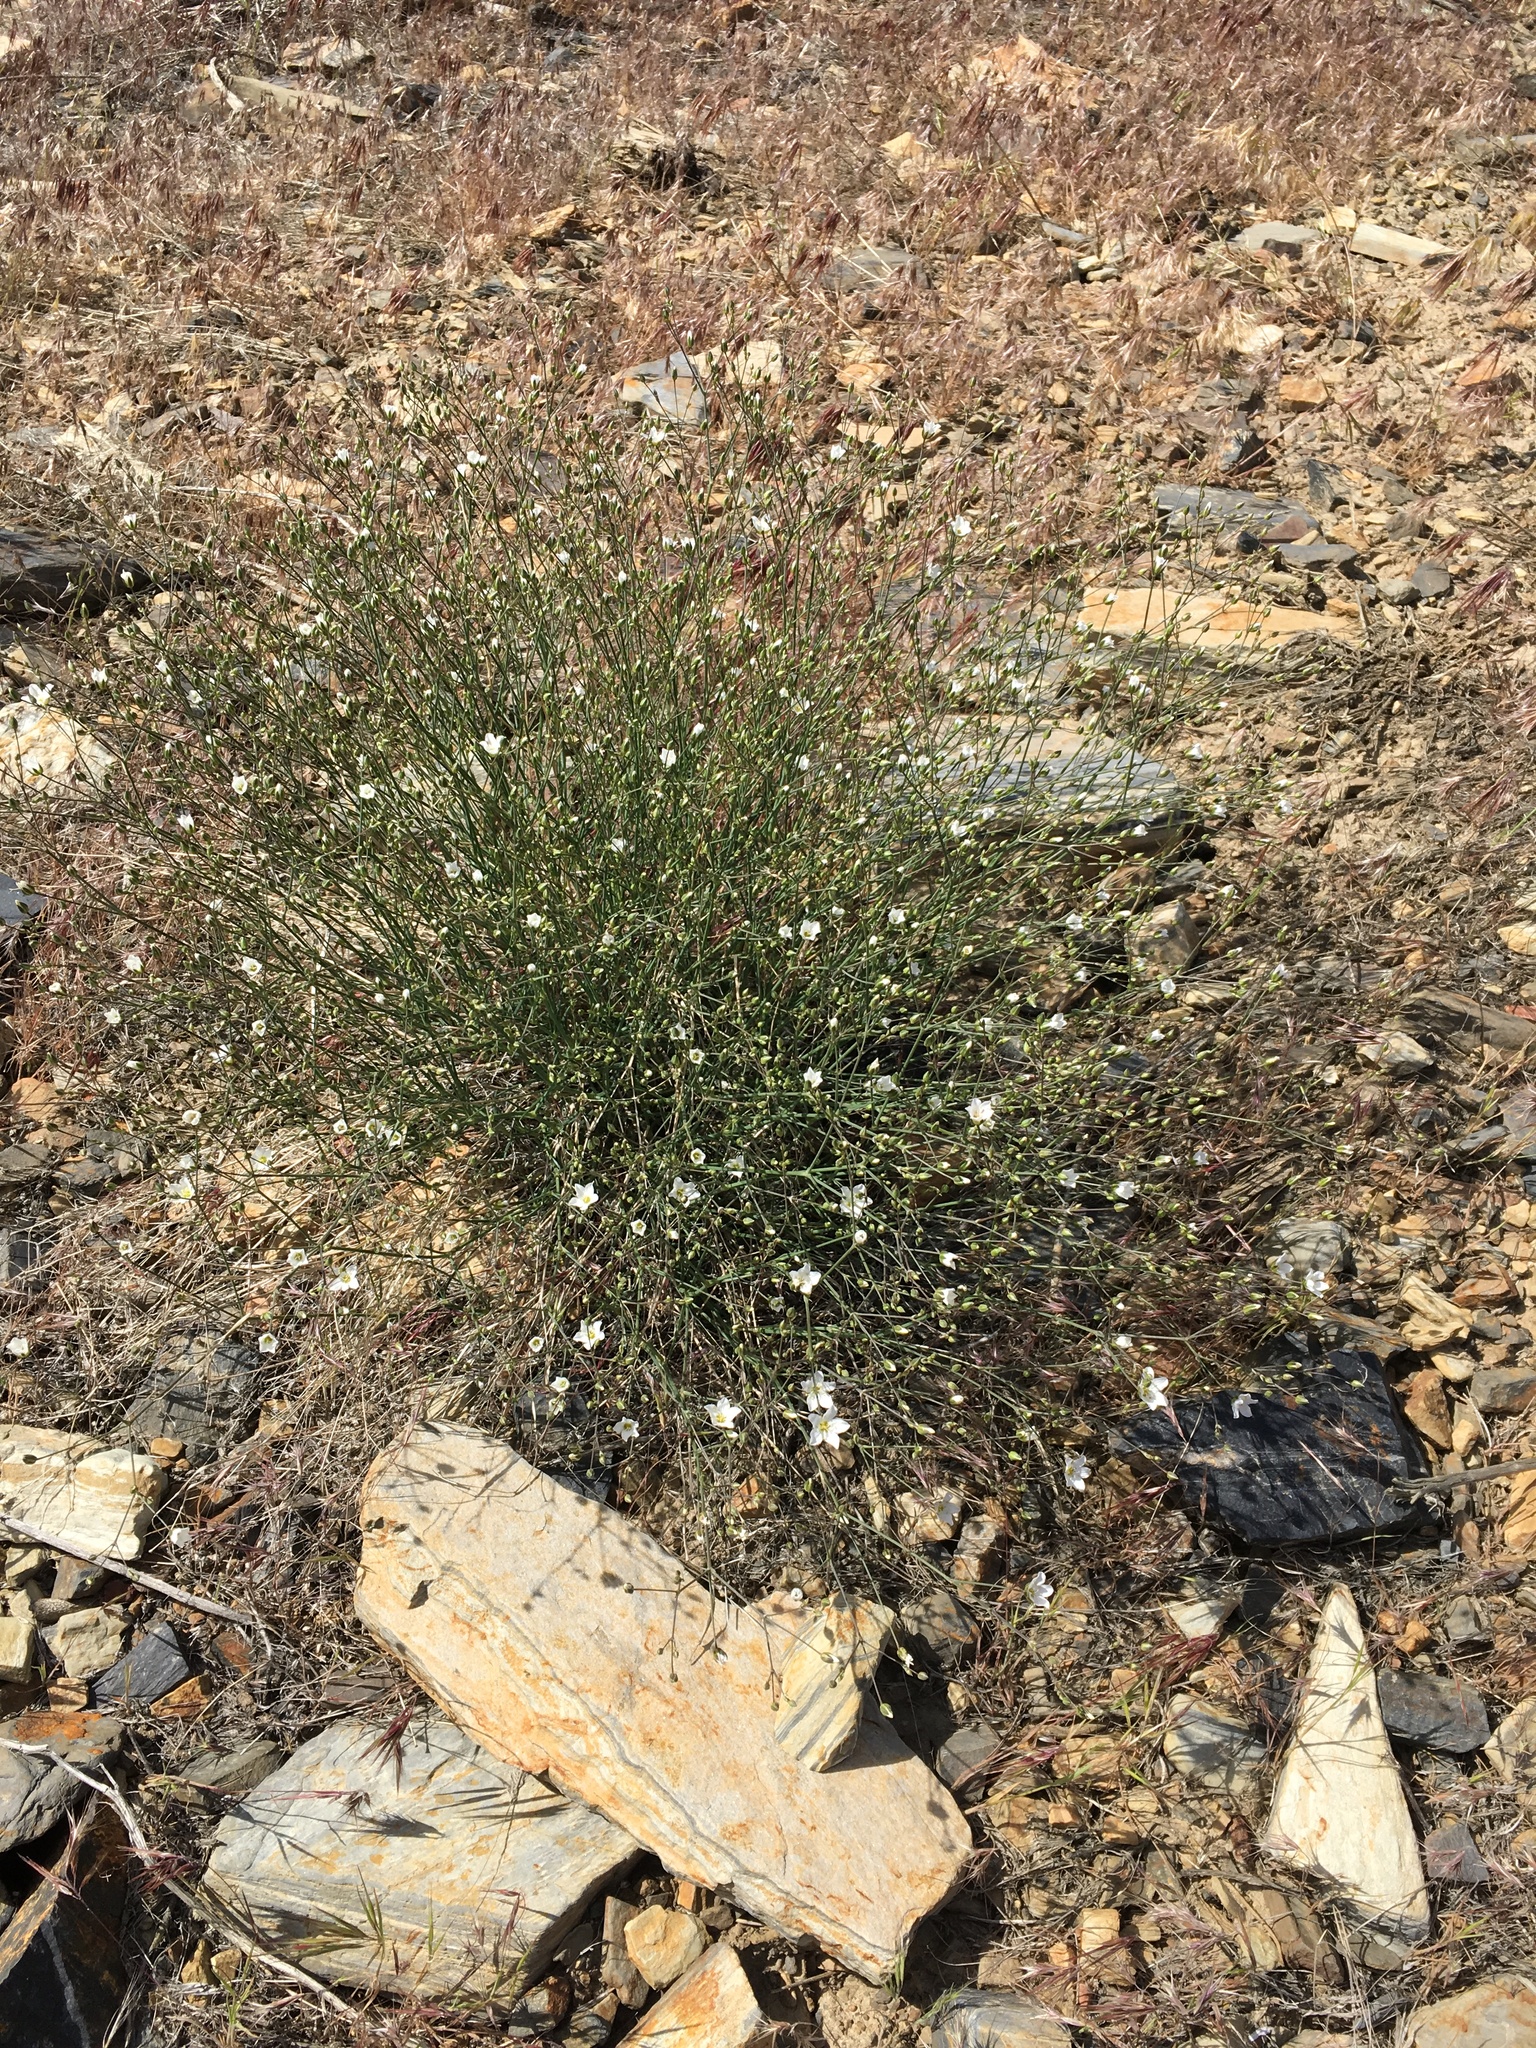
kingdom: Plantae
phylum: Tracheophyta
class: Magnoliopsida
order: Caryophyllales
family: Caryophyllaceae
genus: Eremogone
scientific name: Eremogone ferrisiae
